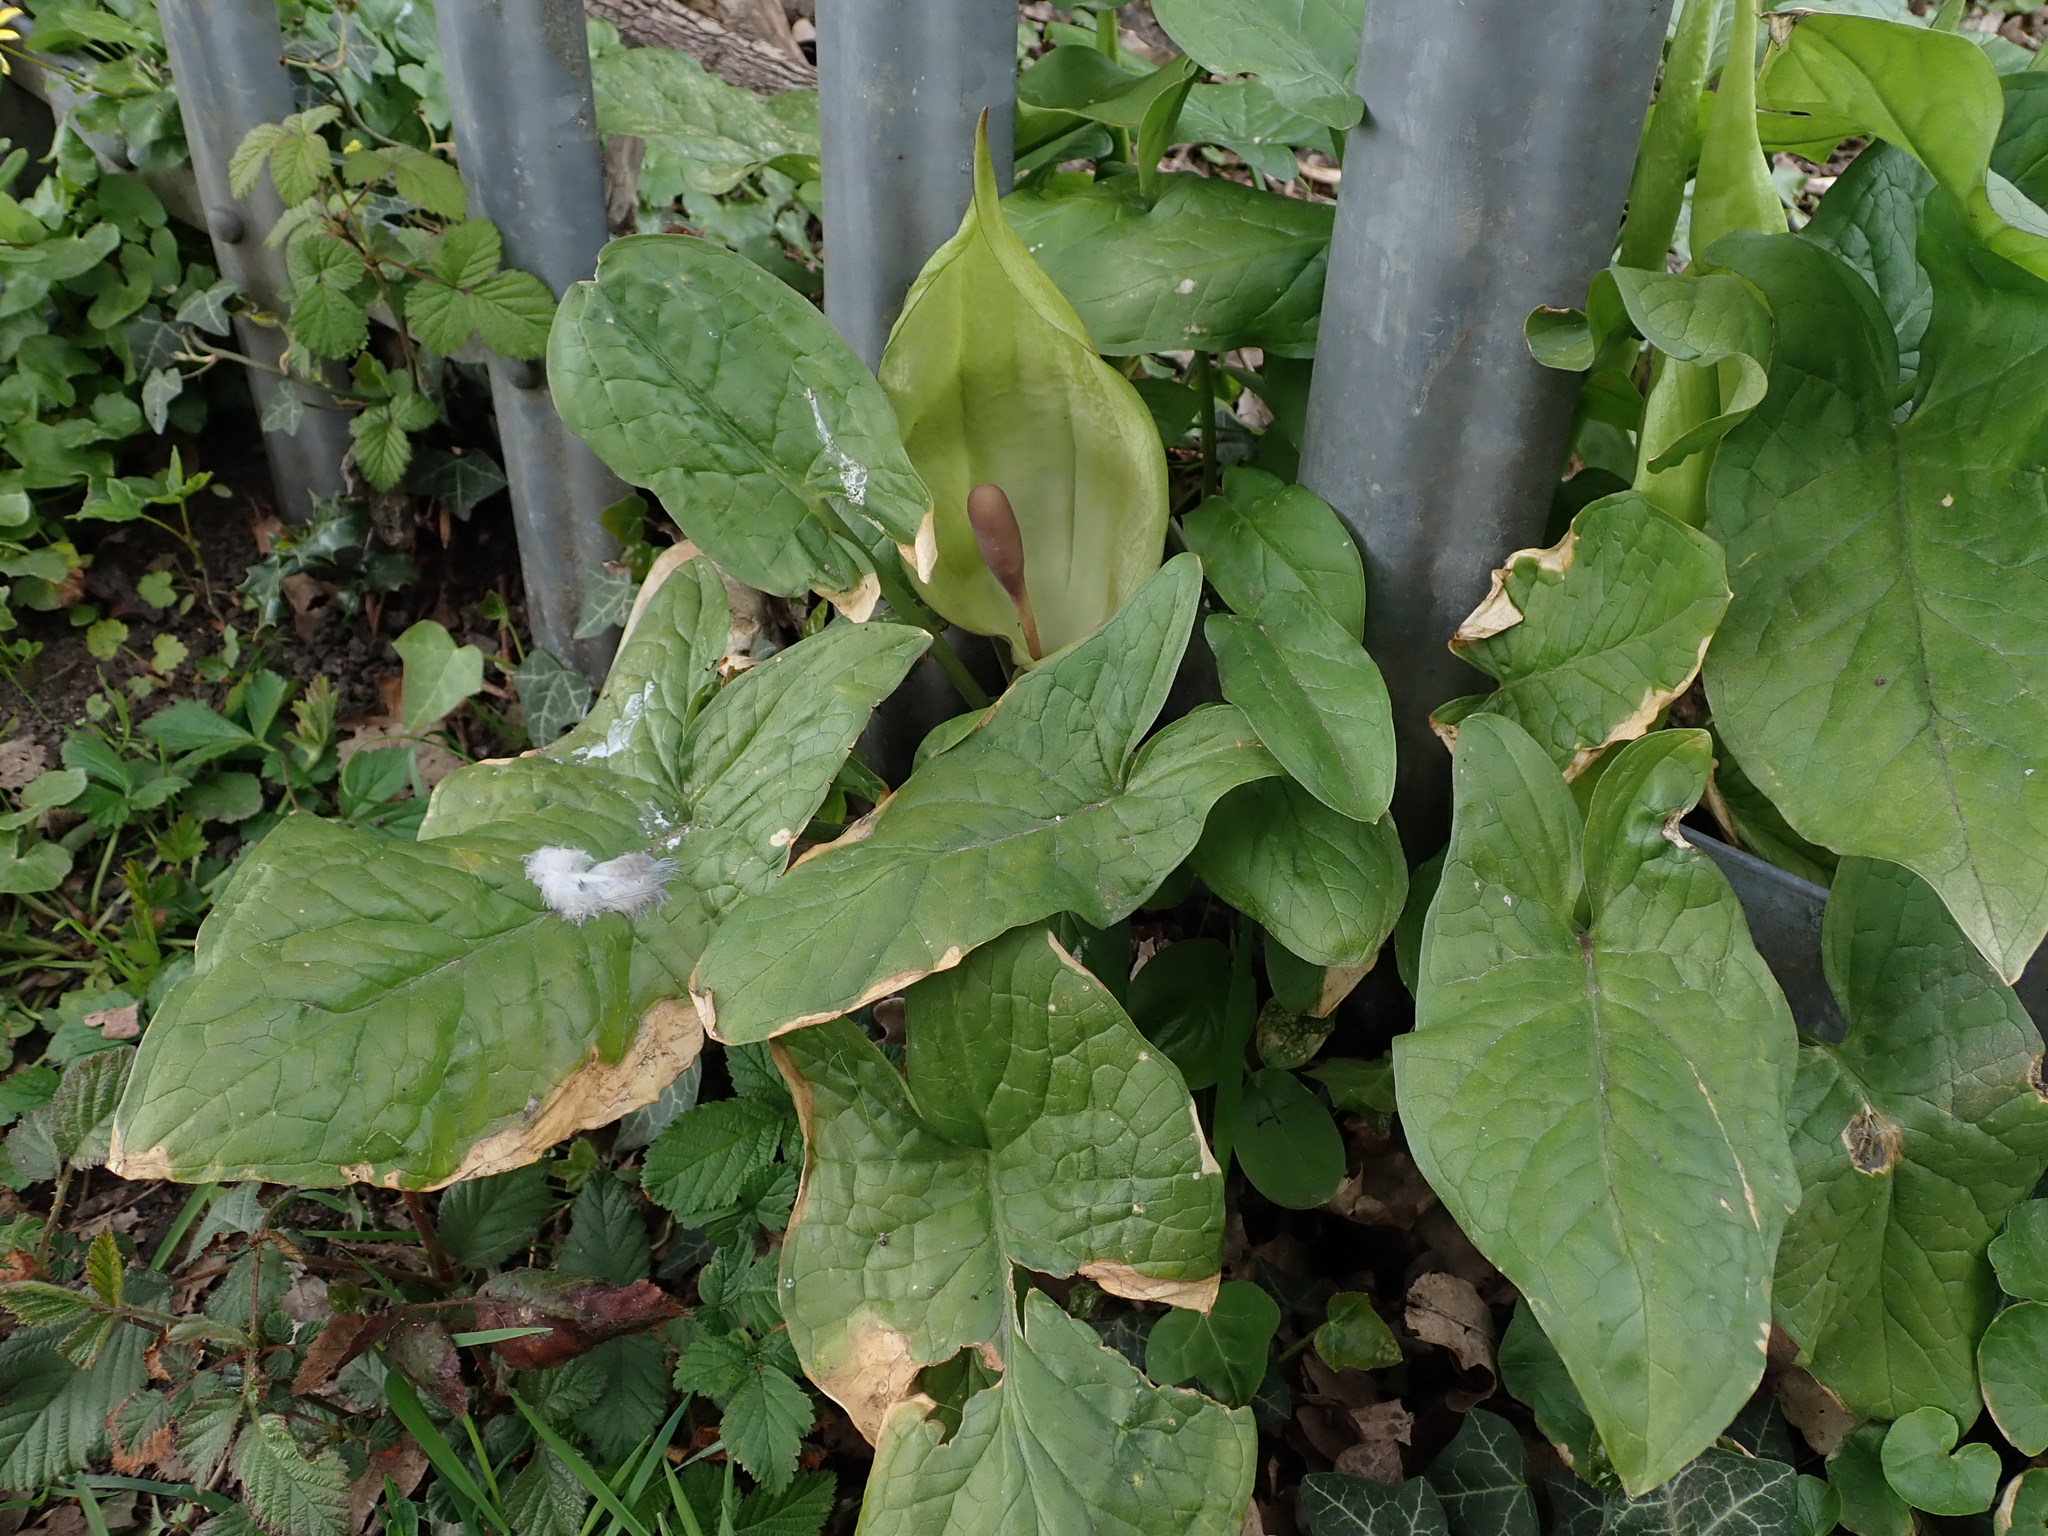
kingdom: Plantae
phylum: Tracheophyta
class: Liliopsida
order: Alismatales
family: Araceae
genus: Arum
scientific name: Arum maculatum
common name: Lords-and-ladies
